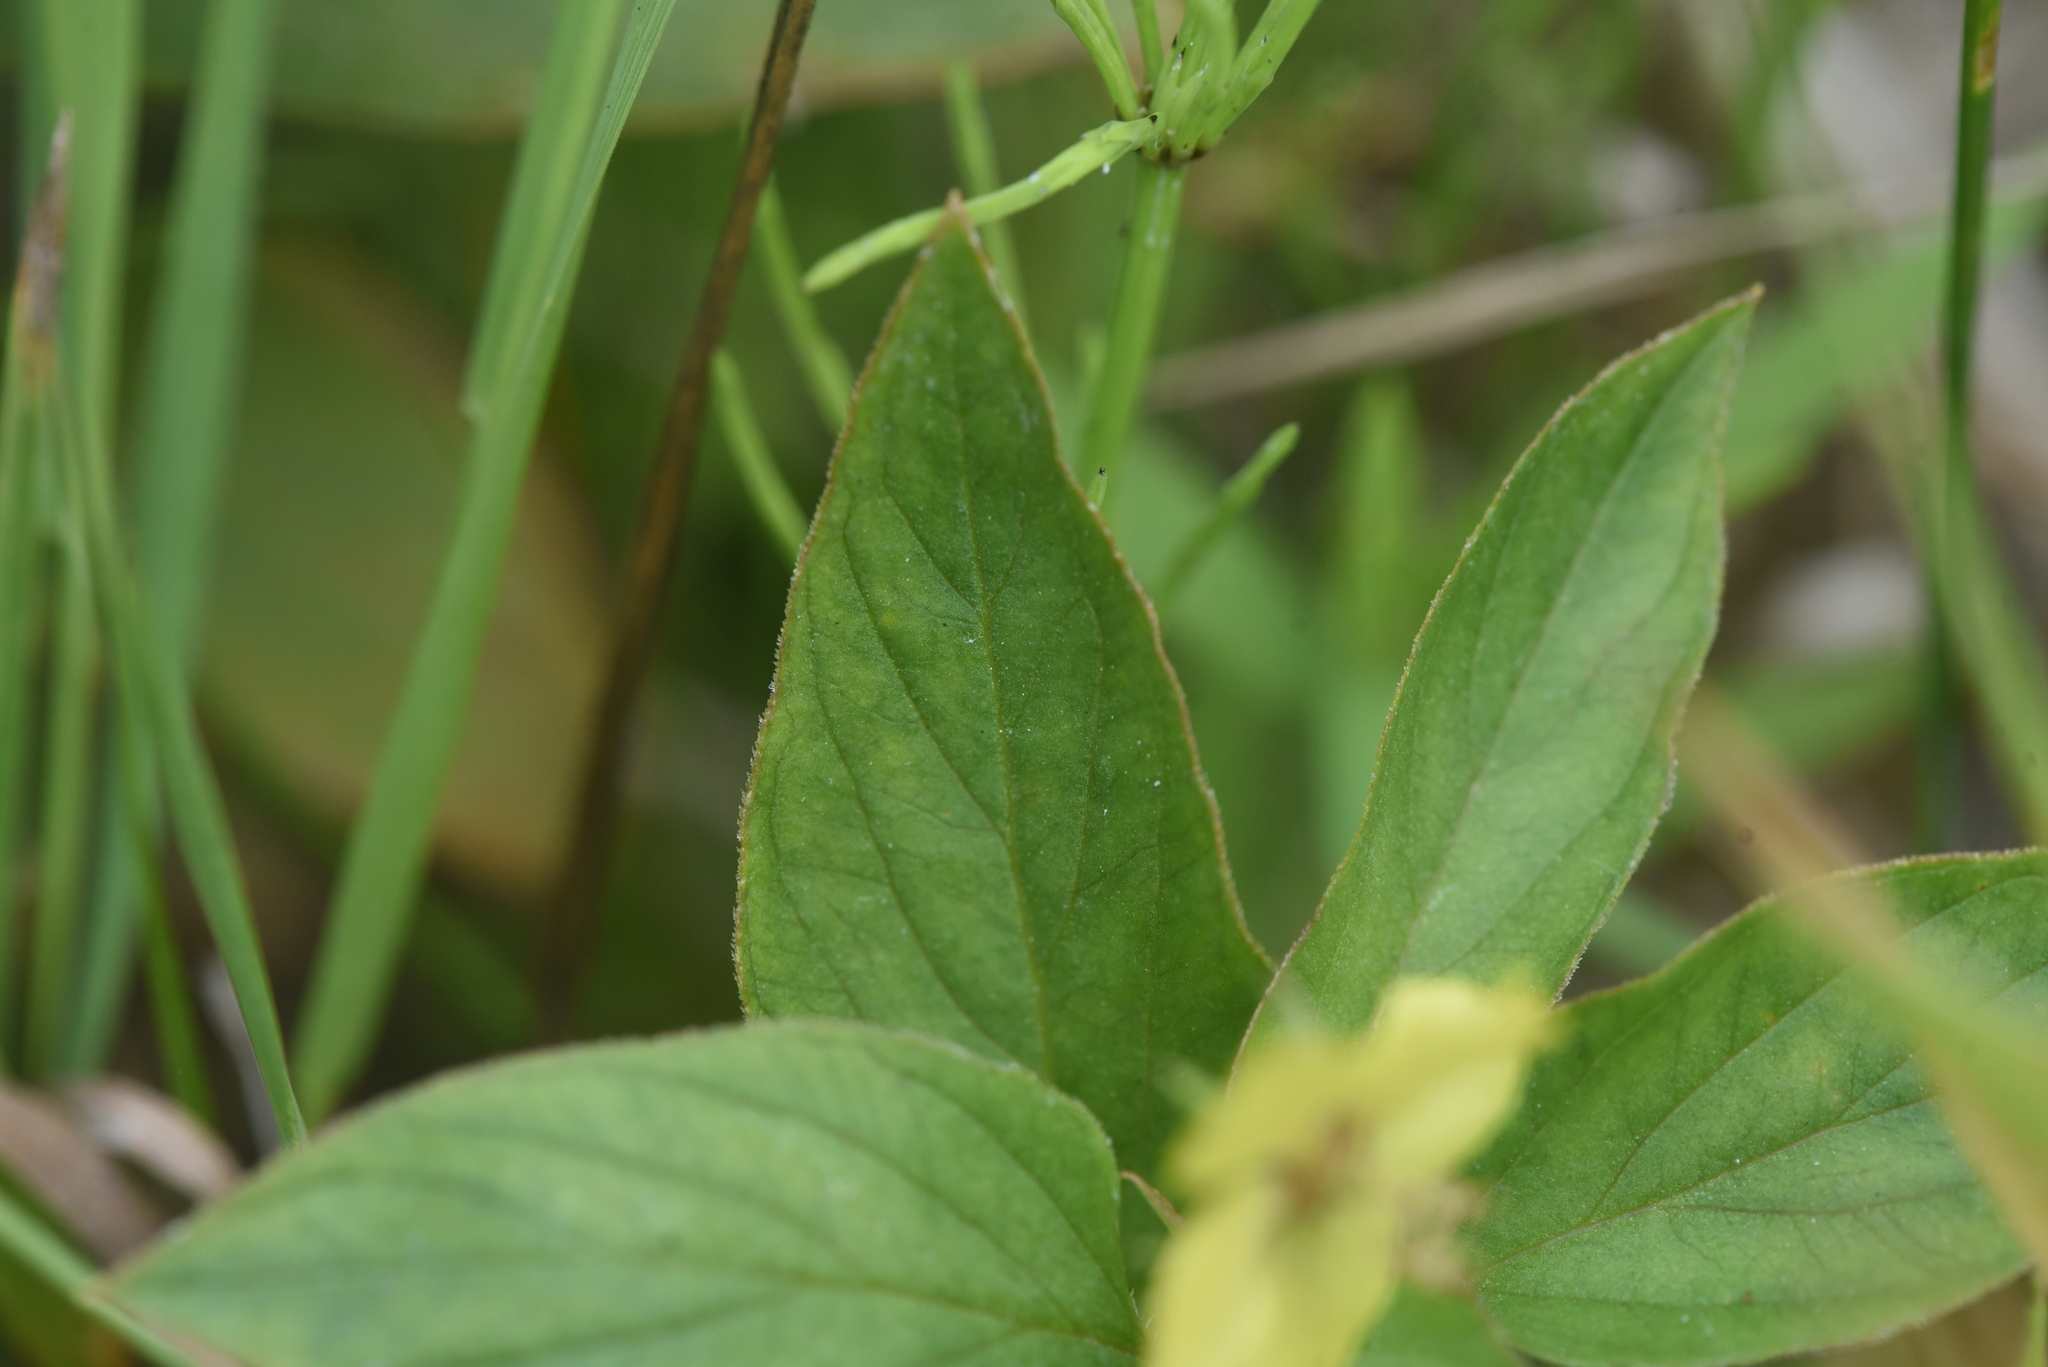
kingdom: Plantae
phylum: Tracheophyta
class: Magnoliopsida
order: Ericales
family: Primulaceae
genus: Lysimachia
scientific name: Lysimachia ciliata
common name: Fringed loosestrife
